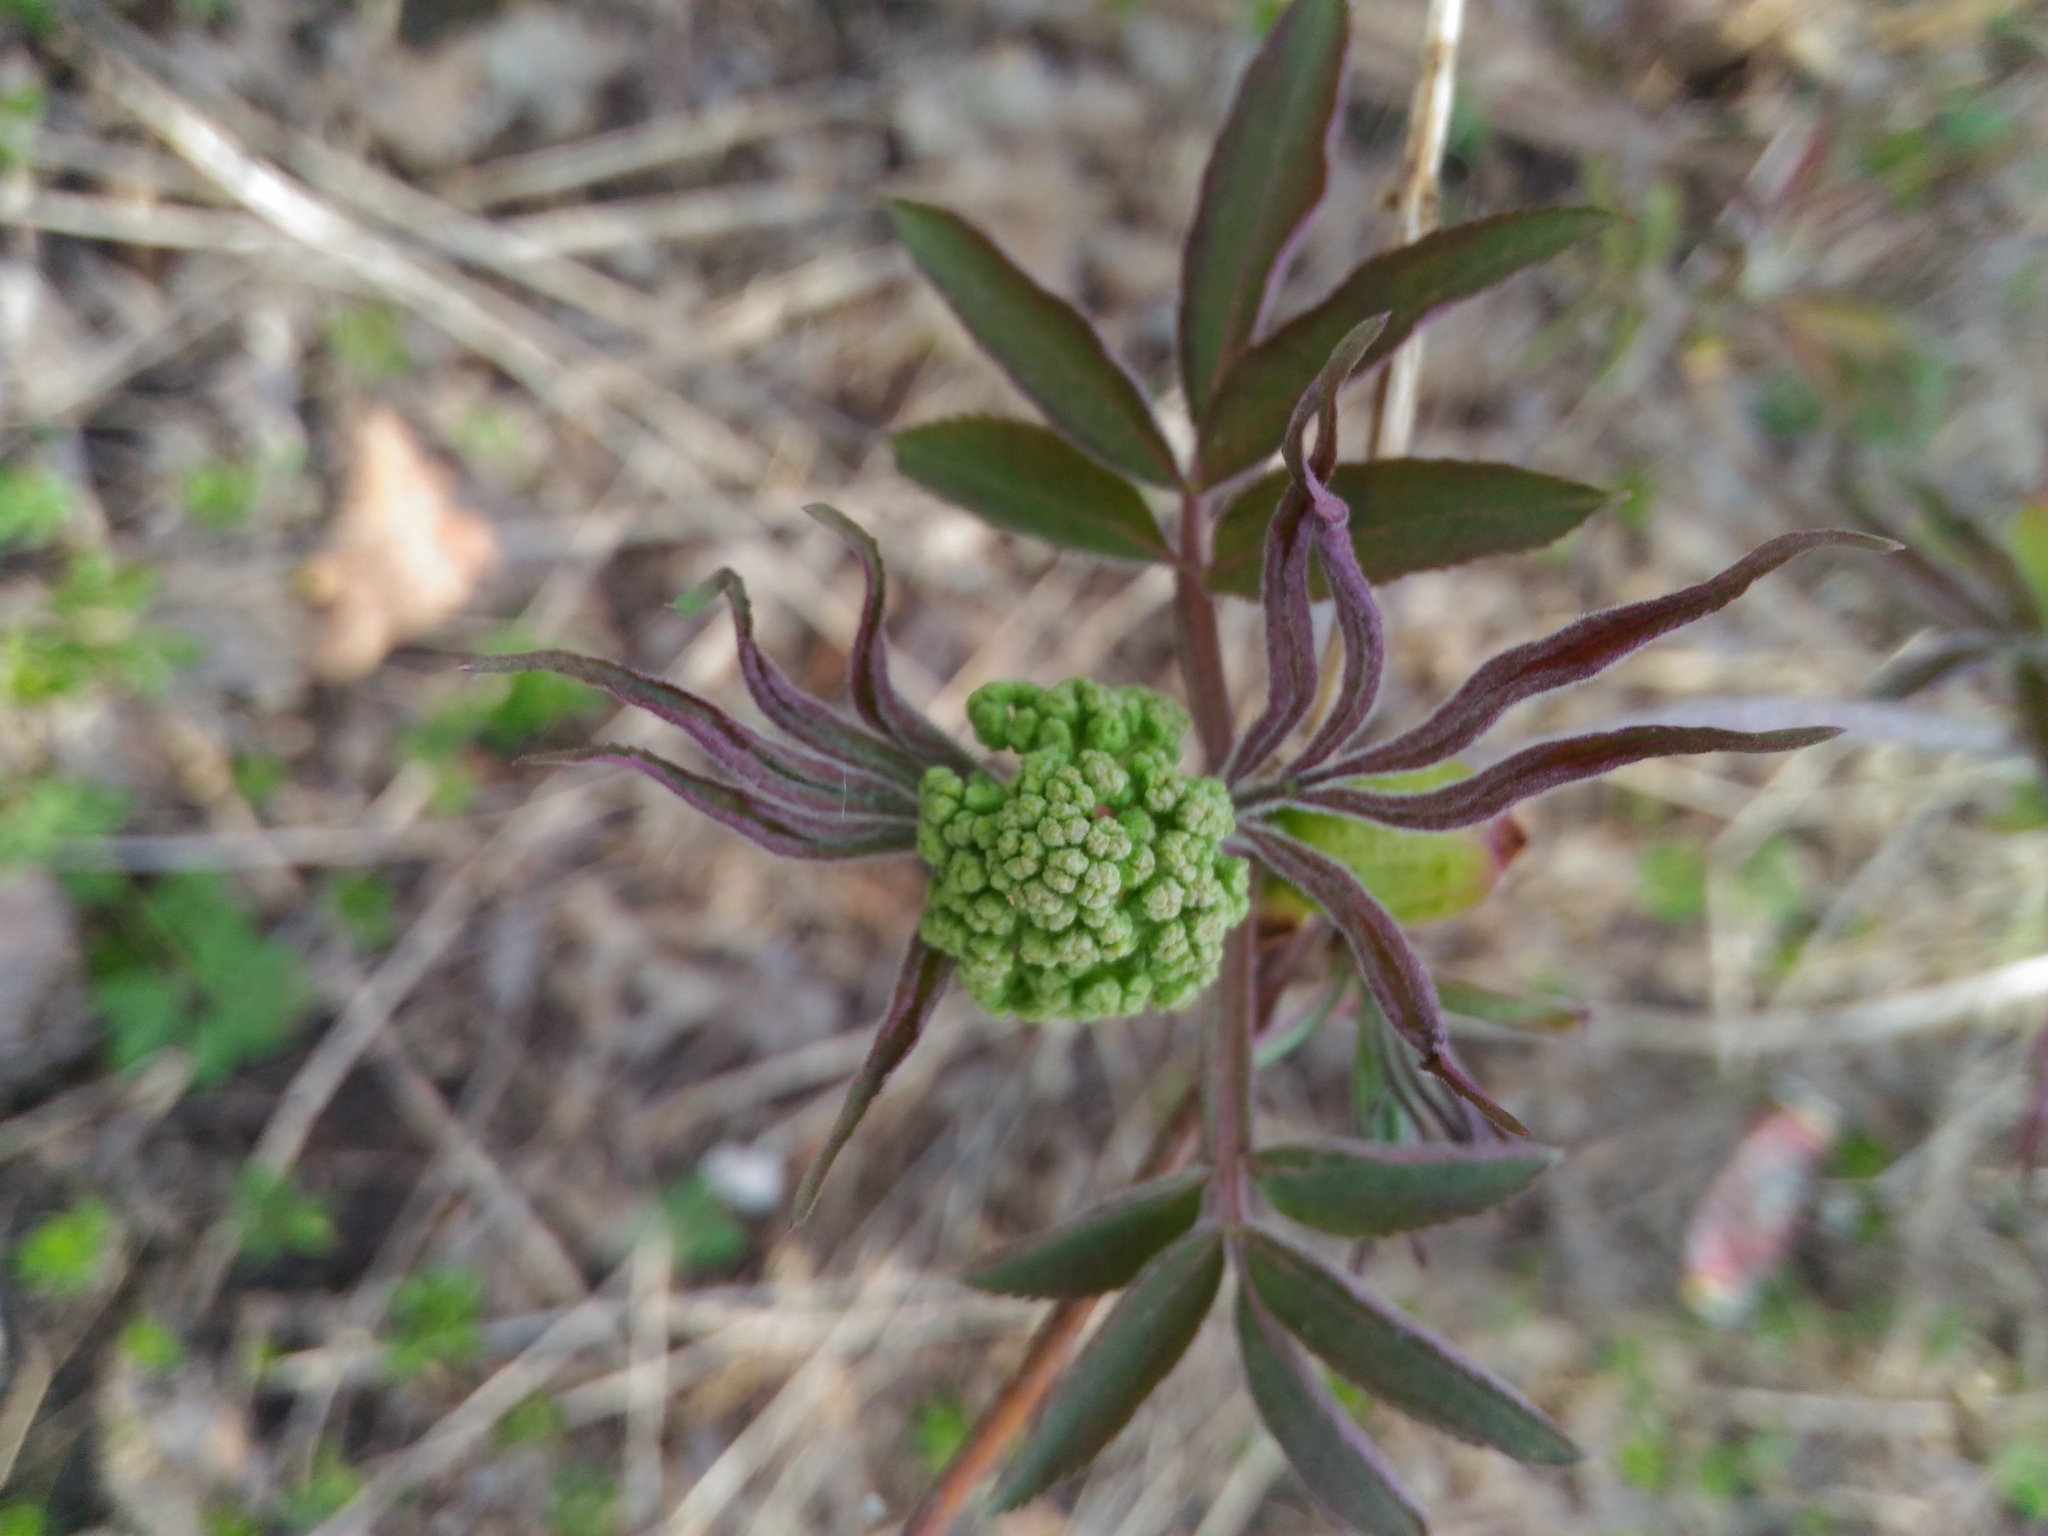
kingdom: Plantae
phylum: Tracheophyta
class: Magnoliopsida
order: Dipsacales
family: Viburnaceae
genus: Sambucus
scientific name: Sambucus racemosa
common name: Red-berried elder
